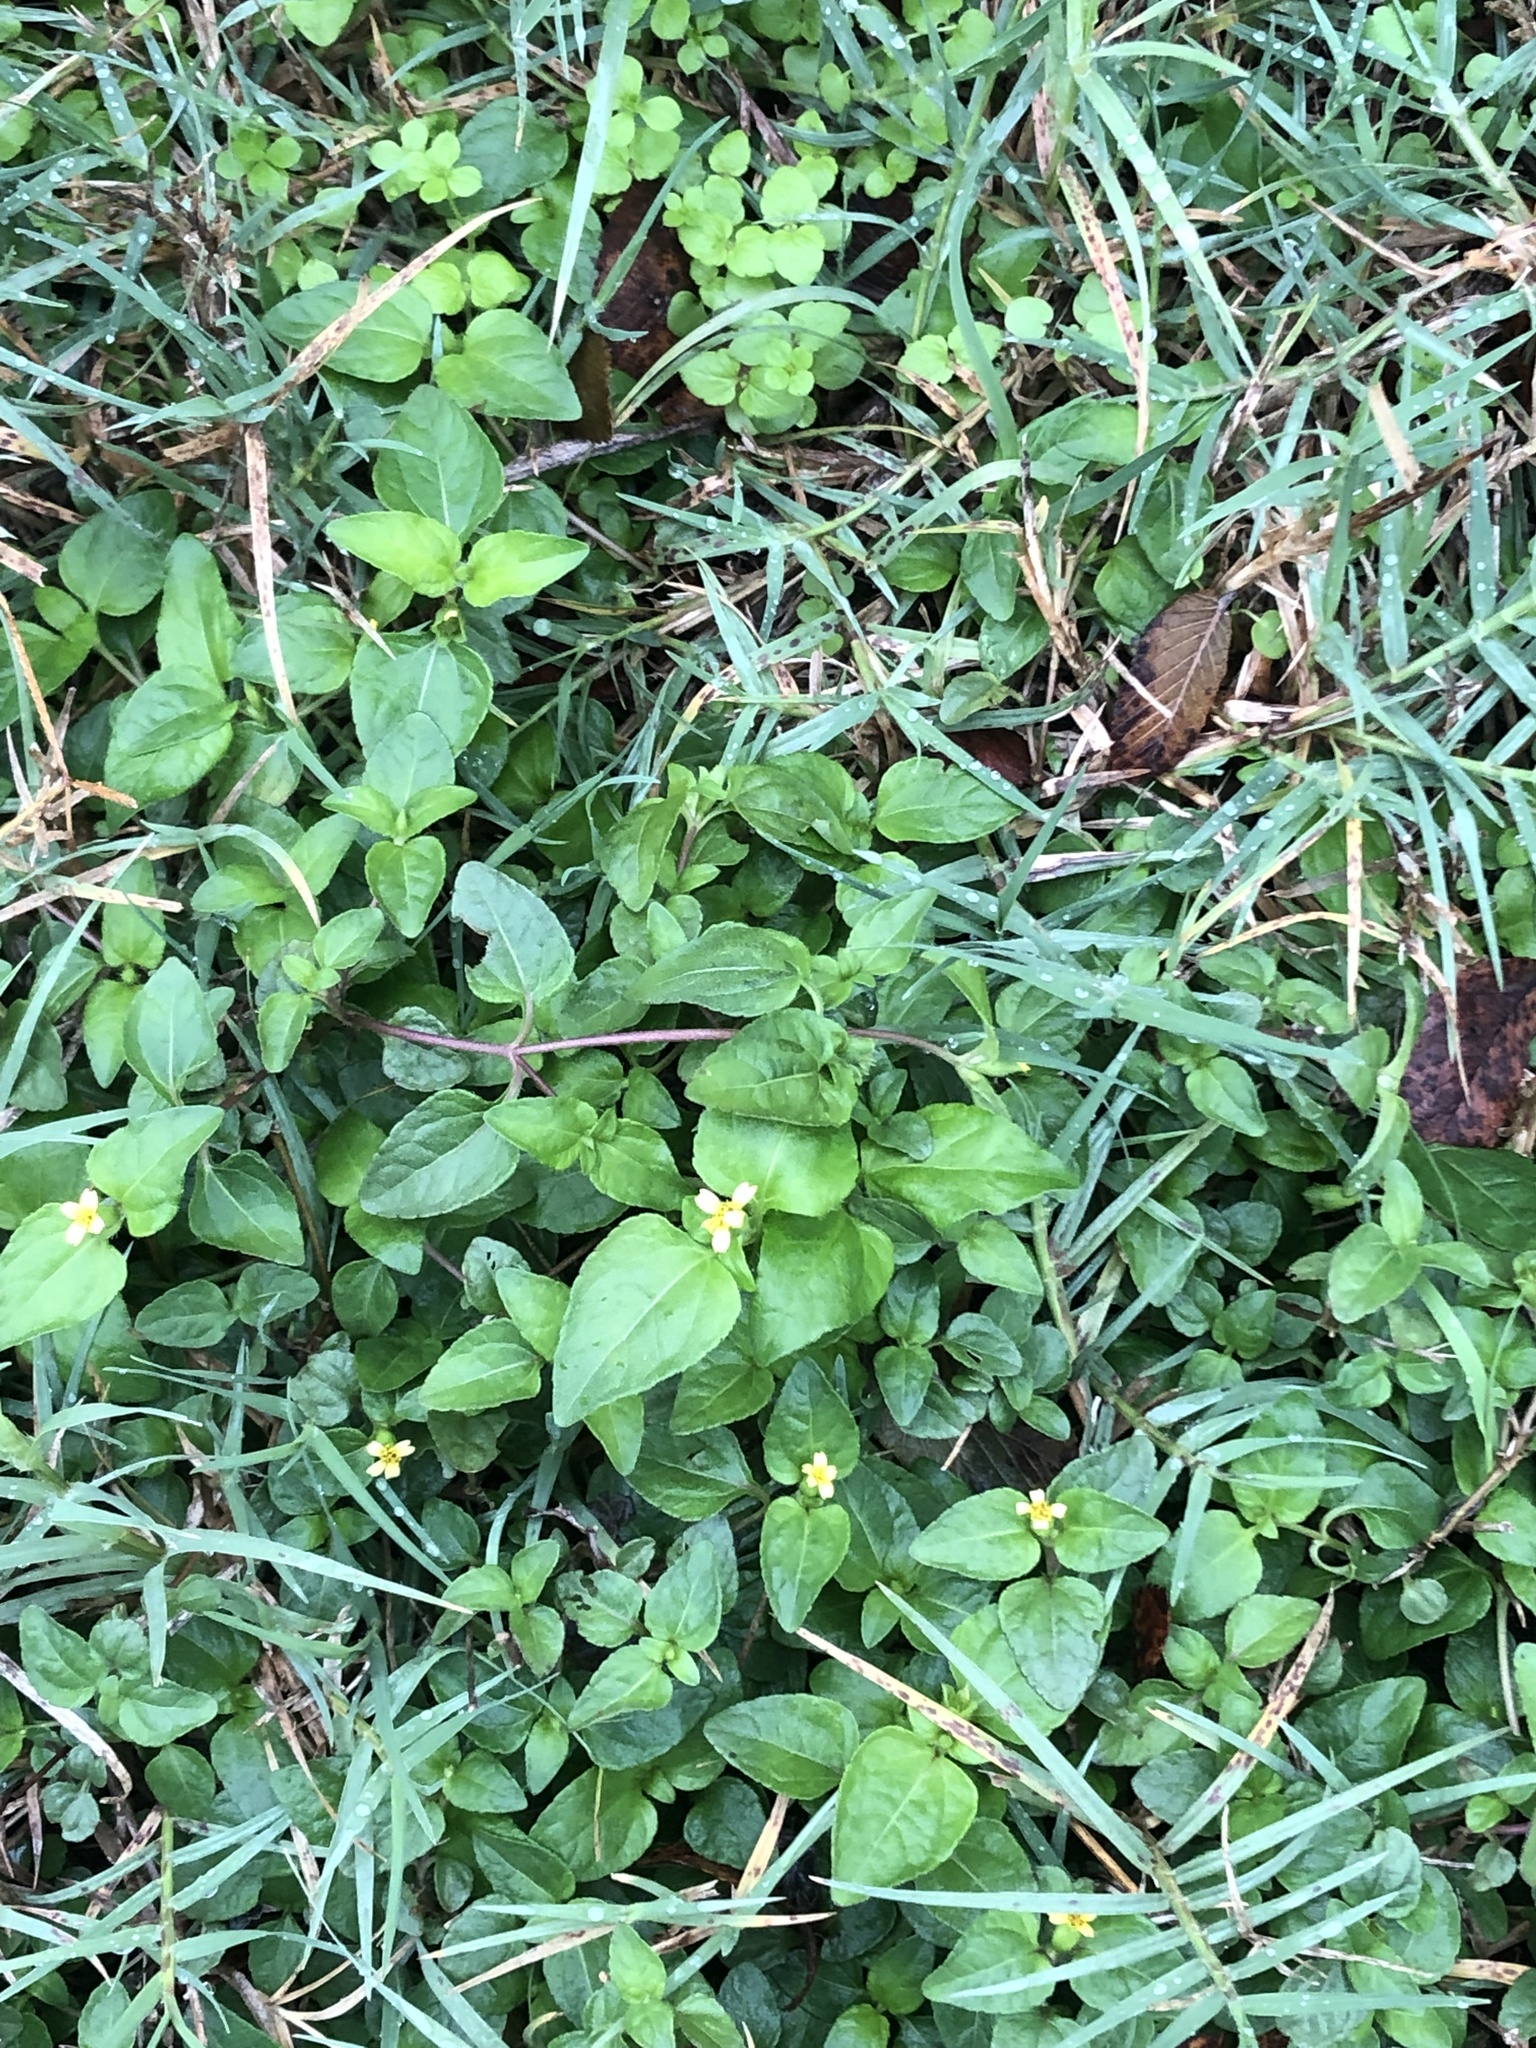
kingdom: Plantae
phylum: Tracheophyta
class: Magnoliopsida
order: Asterales
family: Asteraceae
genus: Calyptocarpus
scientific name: Calyptocarpus vialis
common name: Straggler daisy
